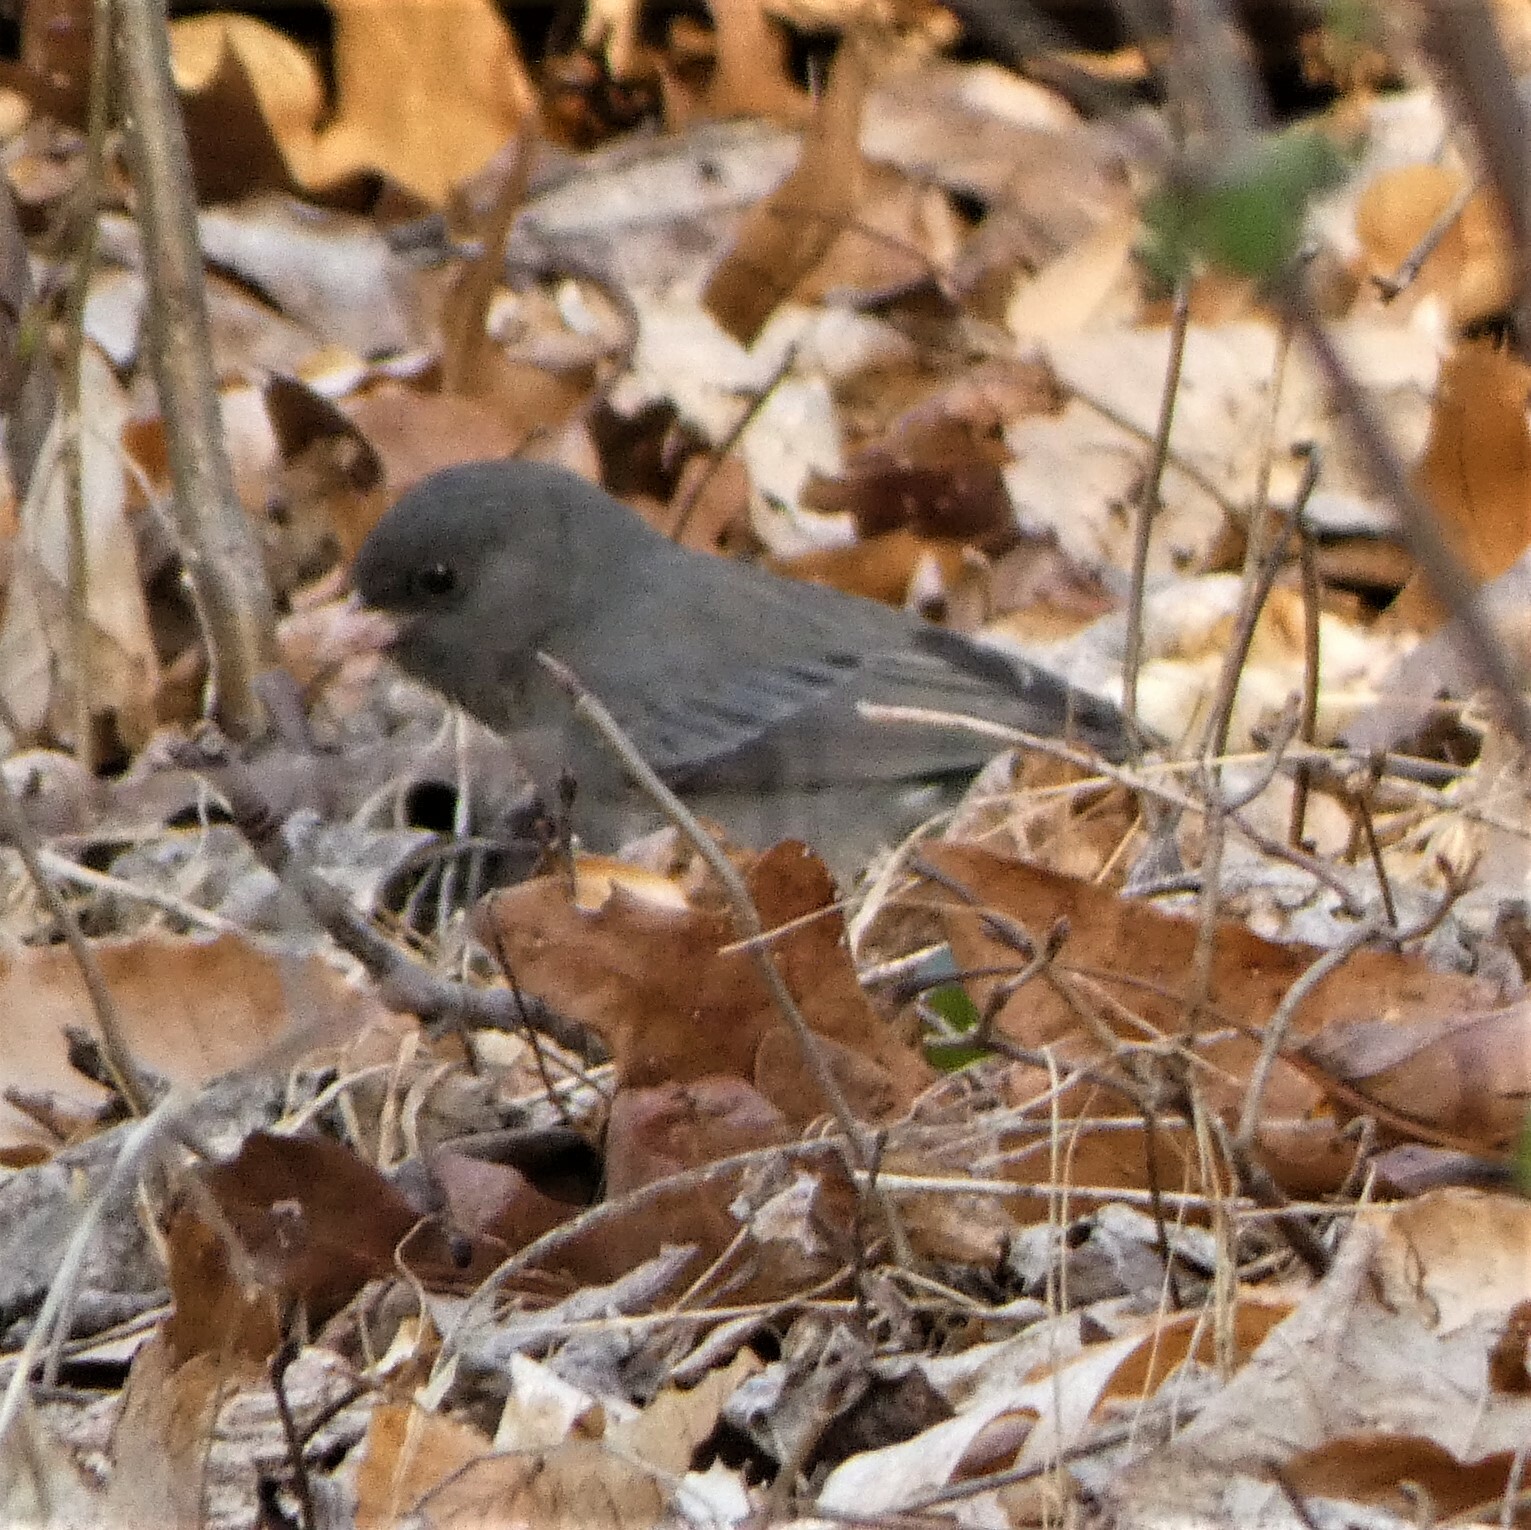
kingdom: Animalia
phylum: Chordata
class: Aves
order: Passeriformes
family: Passerellidae
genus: Junco
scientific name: Junco hyemalis
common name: Dark-eyed junco
